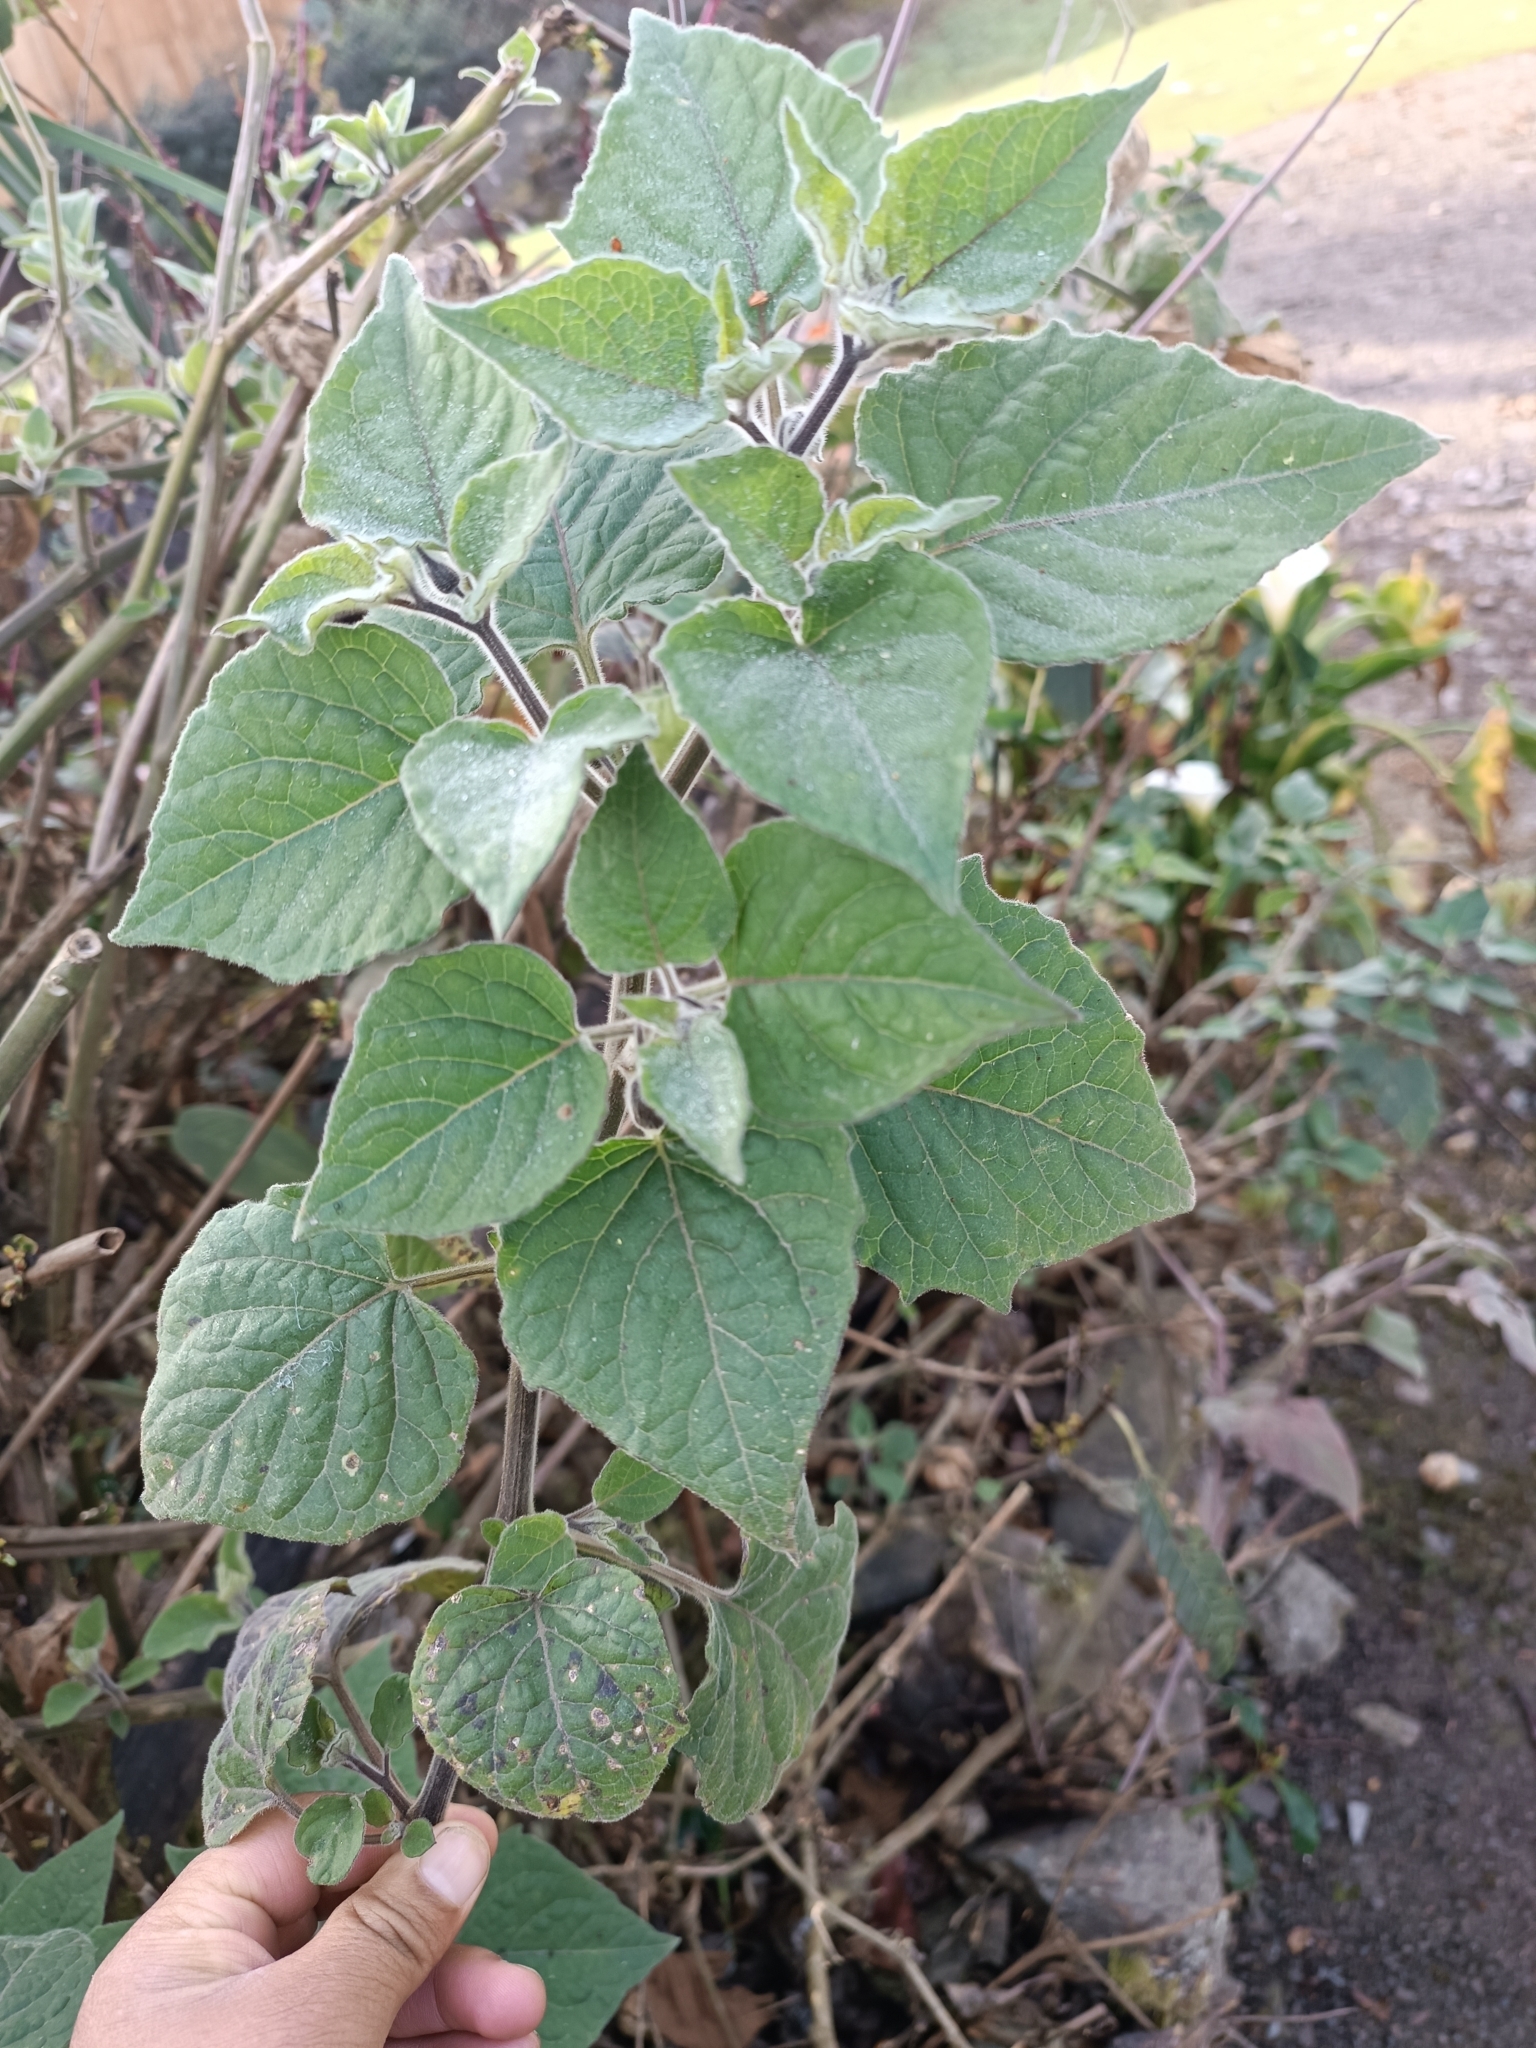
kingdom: Plantae
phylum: Tracheophyta
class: Magnoliopsida
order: Solanales
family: Solanaceae
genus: Physalis
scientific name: Physalis peruviana
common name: Cape-gooseberry
